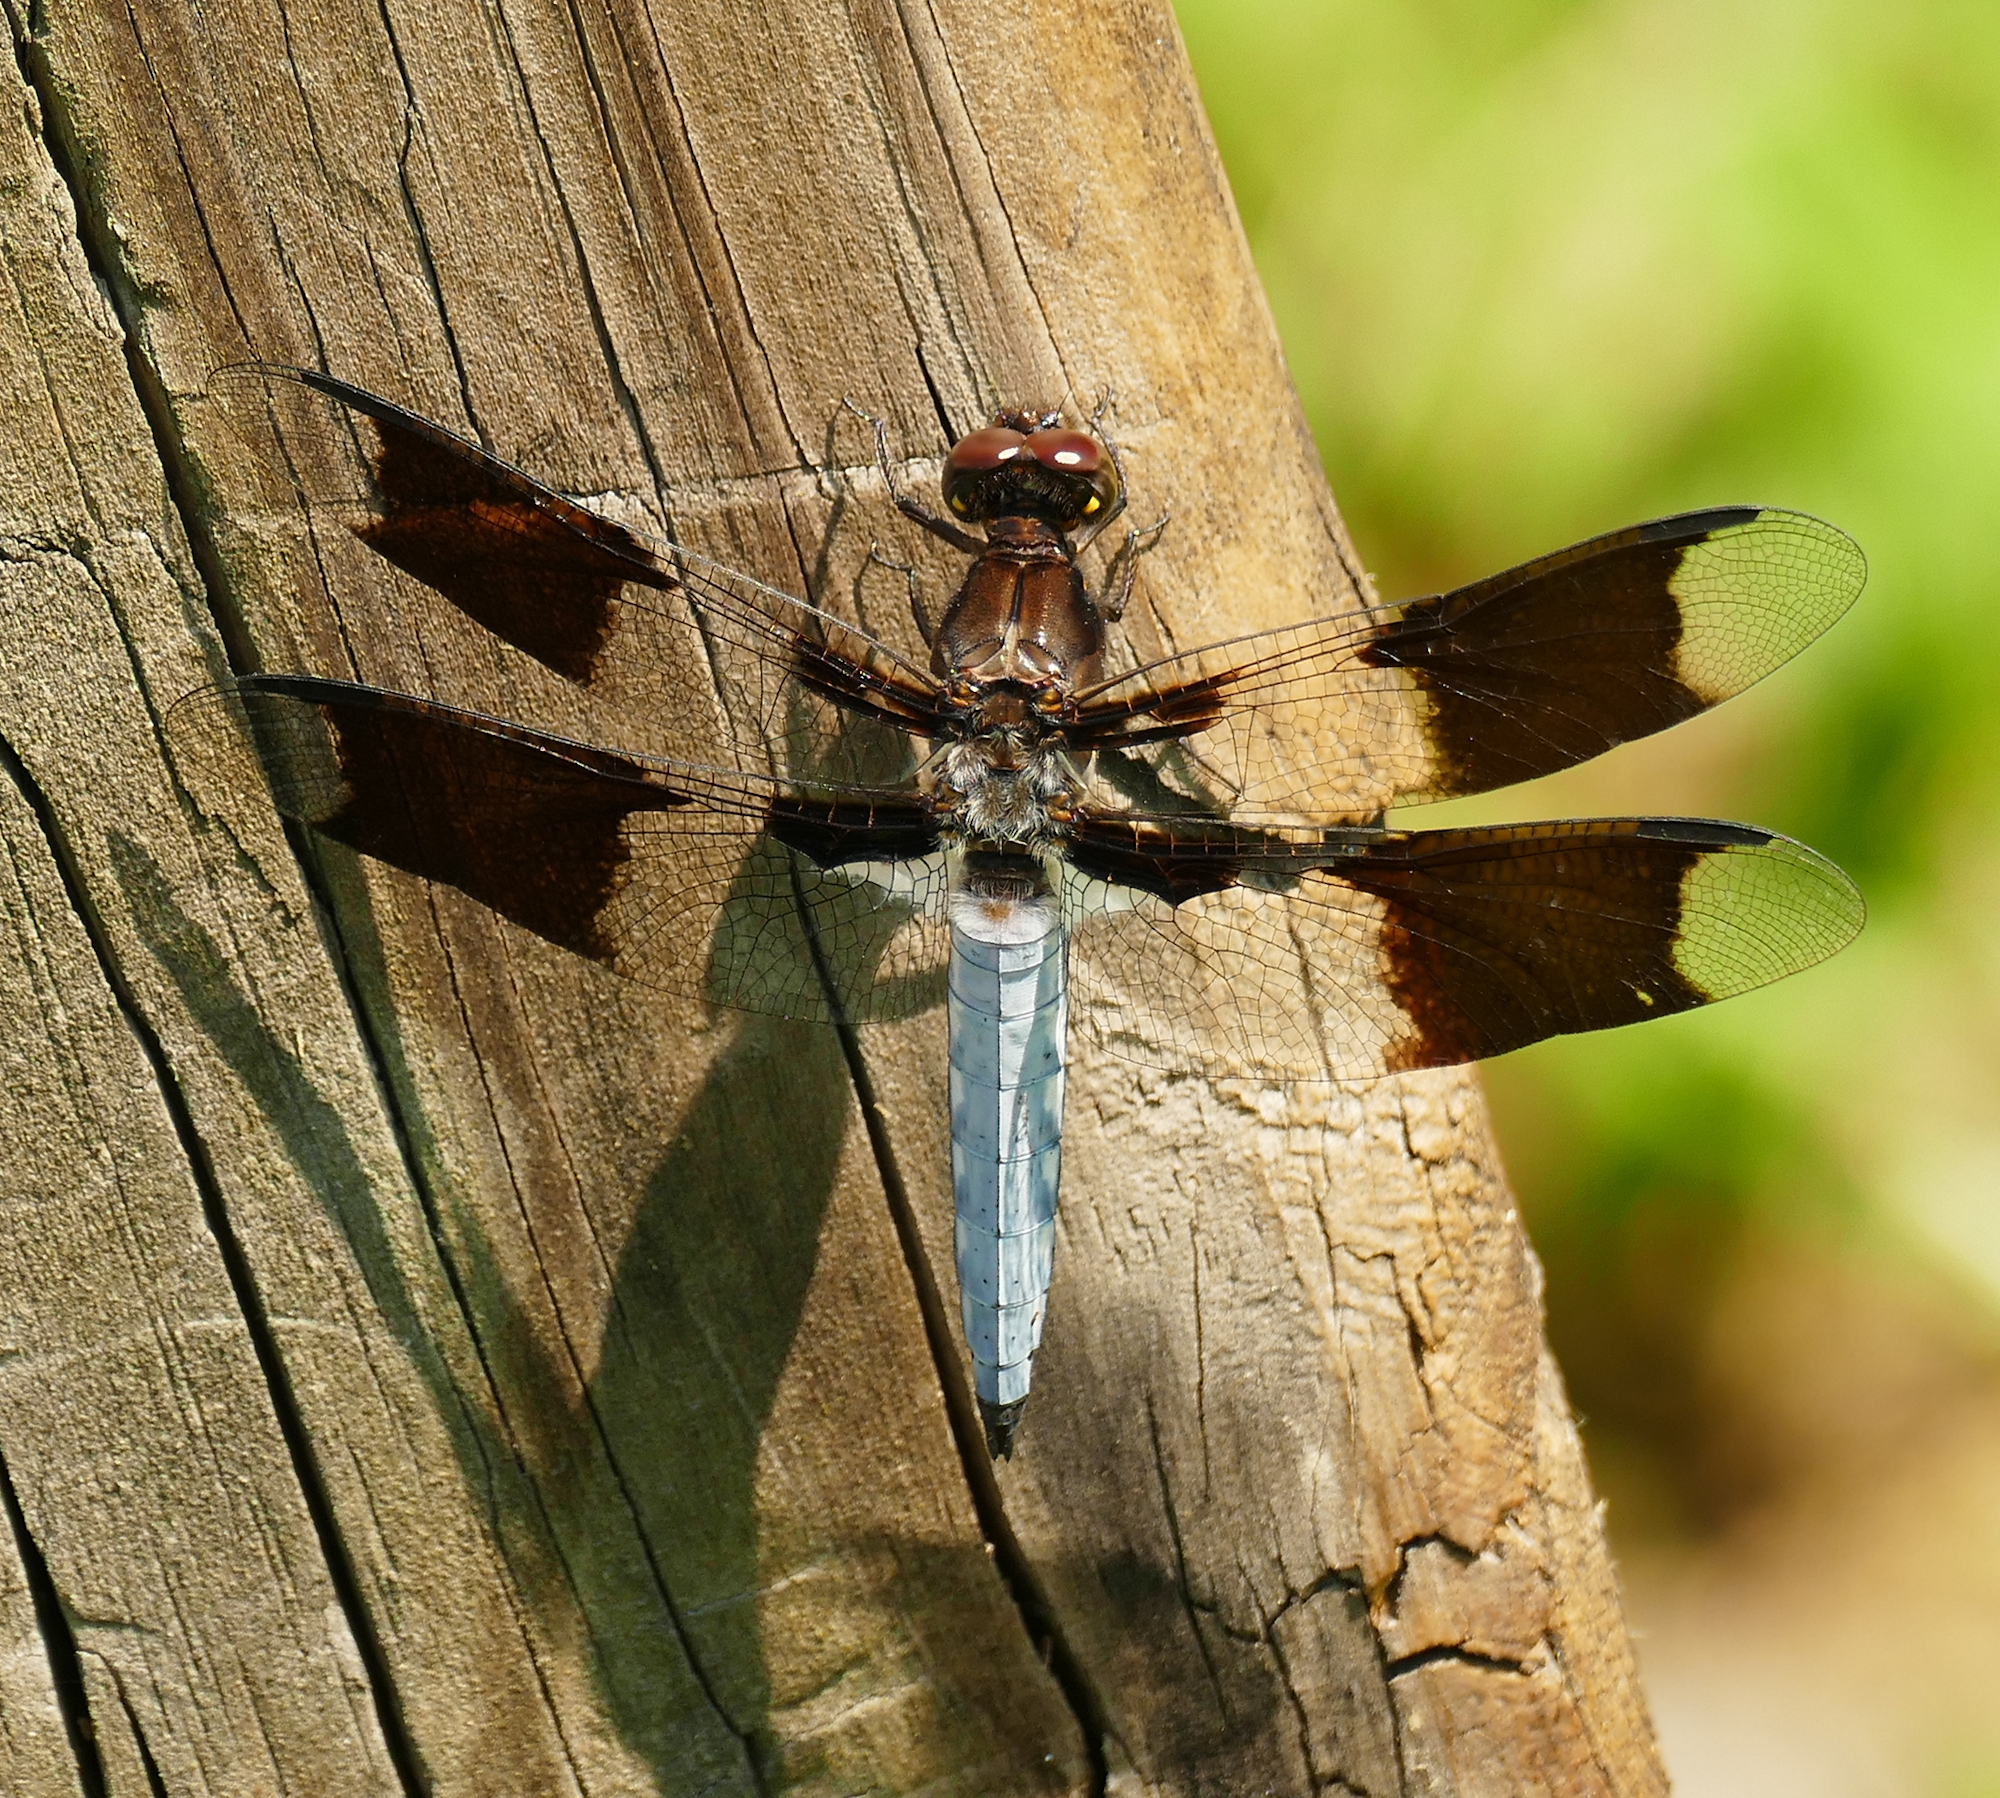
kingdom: Animalia
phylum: Arthropoda
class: Insecta
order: Odonata
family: Libellulidae
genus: Plathemis
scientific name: Plathemis lydia
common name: Common whitetail
